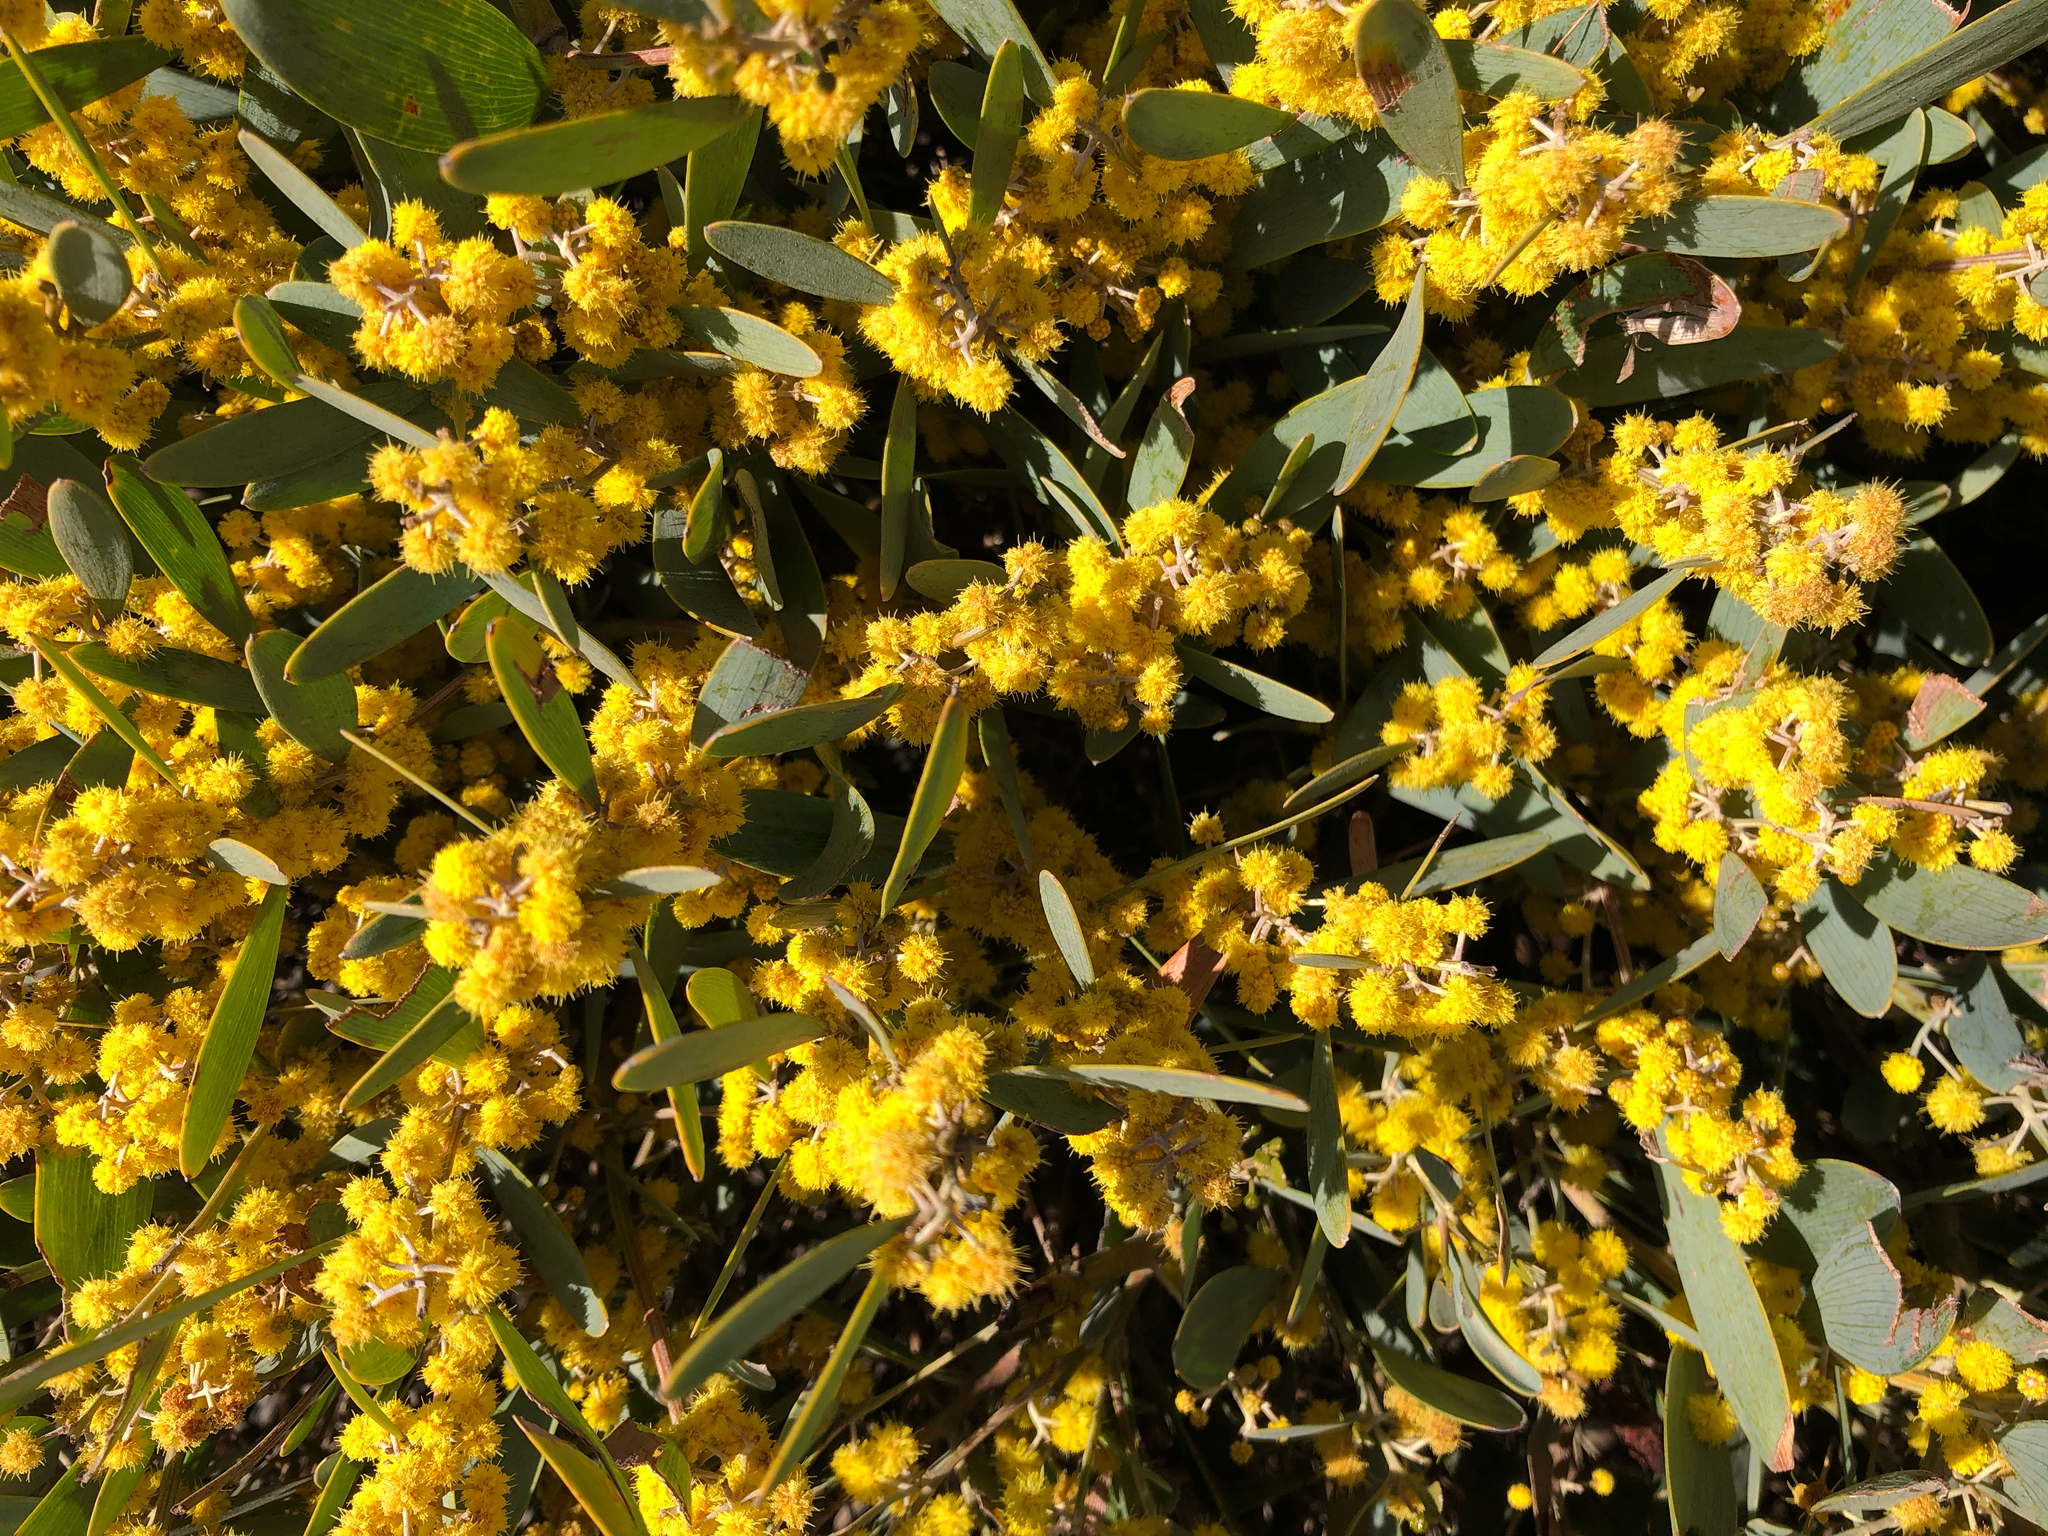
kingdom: Plantae
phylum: Tracheophyta
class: Magnoliopsida
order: Fabales
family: Fabaceae
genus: Acacia
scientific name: Acacia redolens
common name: Bank catclaw
